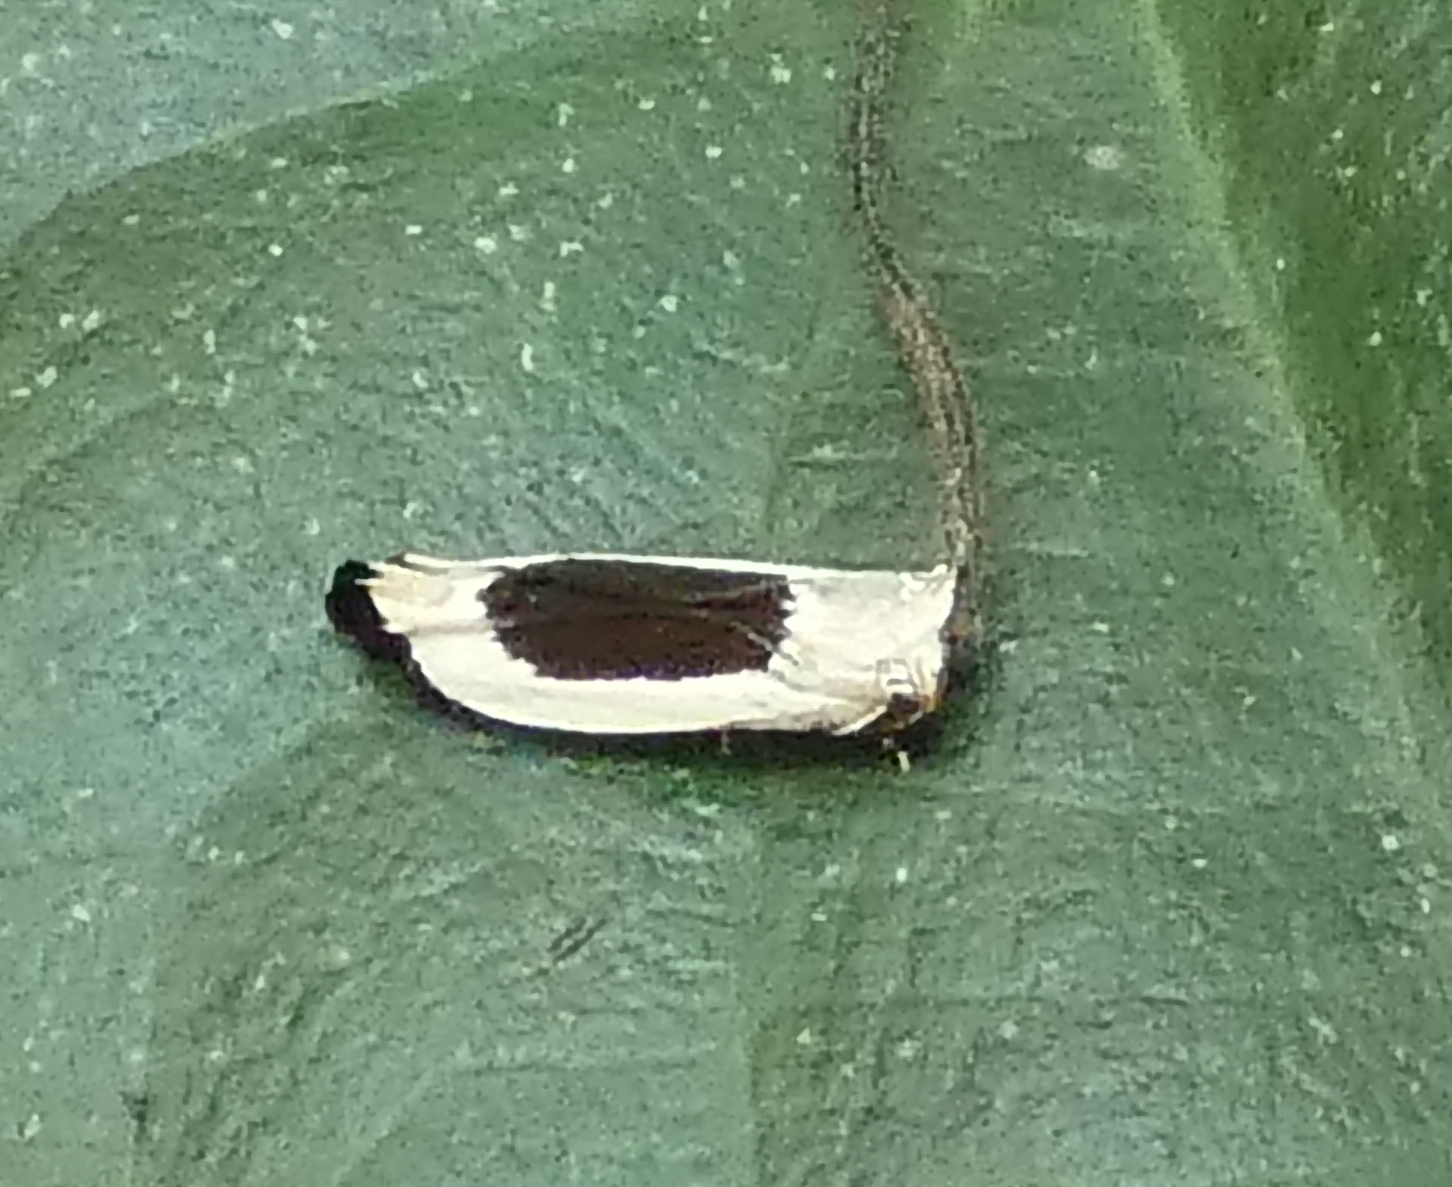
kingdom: Animalia
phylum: Arthropoda
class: Insecta
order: Lepidoptera
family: Gelechiidae
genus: Battaristis
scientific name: Battaristis emissurella
